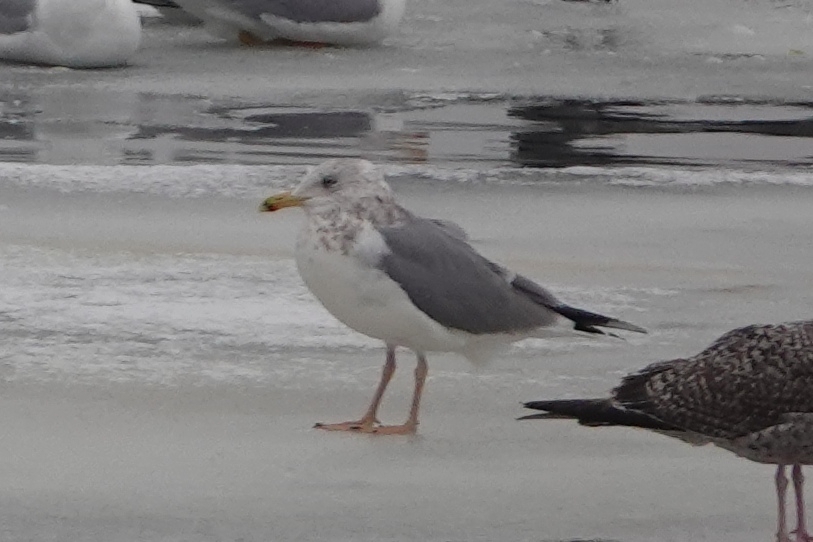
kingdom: Animalia
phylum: Chordata
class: Aves
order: Charadriiformes
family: Laridae
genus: Larus
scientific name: Larus argentatus
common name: Herring gull
